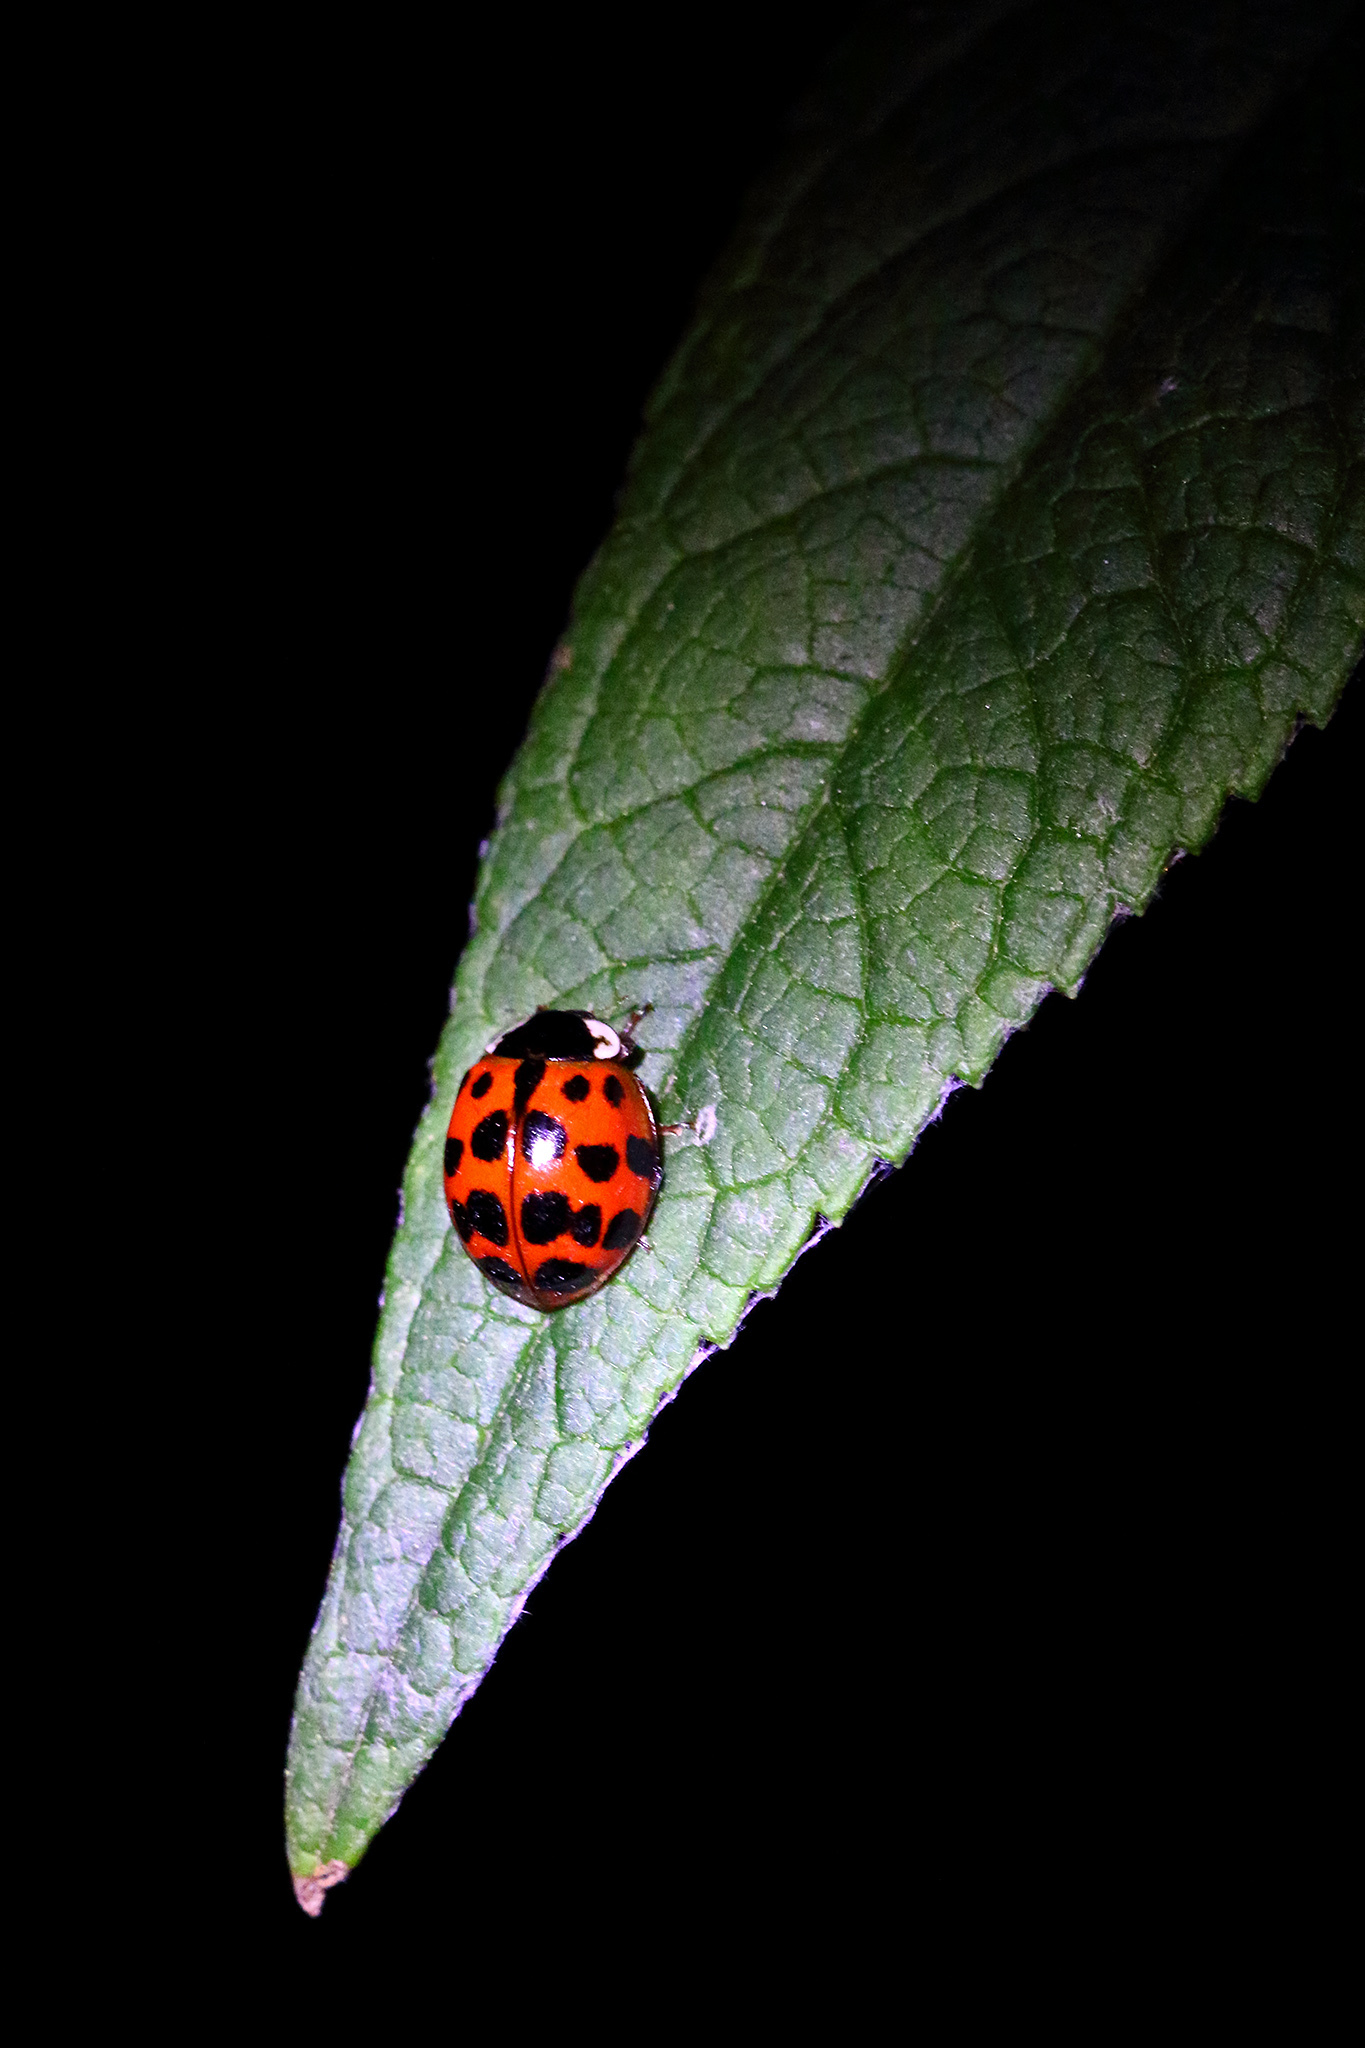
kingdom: Animalia
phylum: Arthropoda
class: Insecta
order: Coleoptera
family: Coccinellidae
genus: Harmonia
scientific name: Harmonia axyridis
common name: Harlequin ladybird
